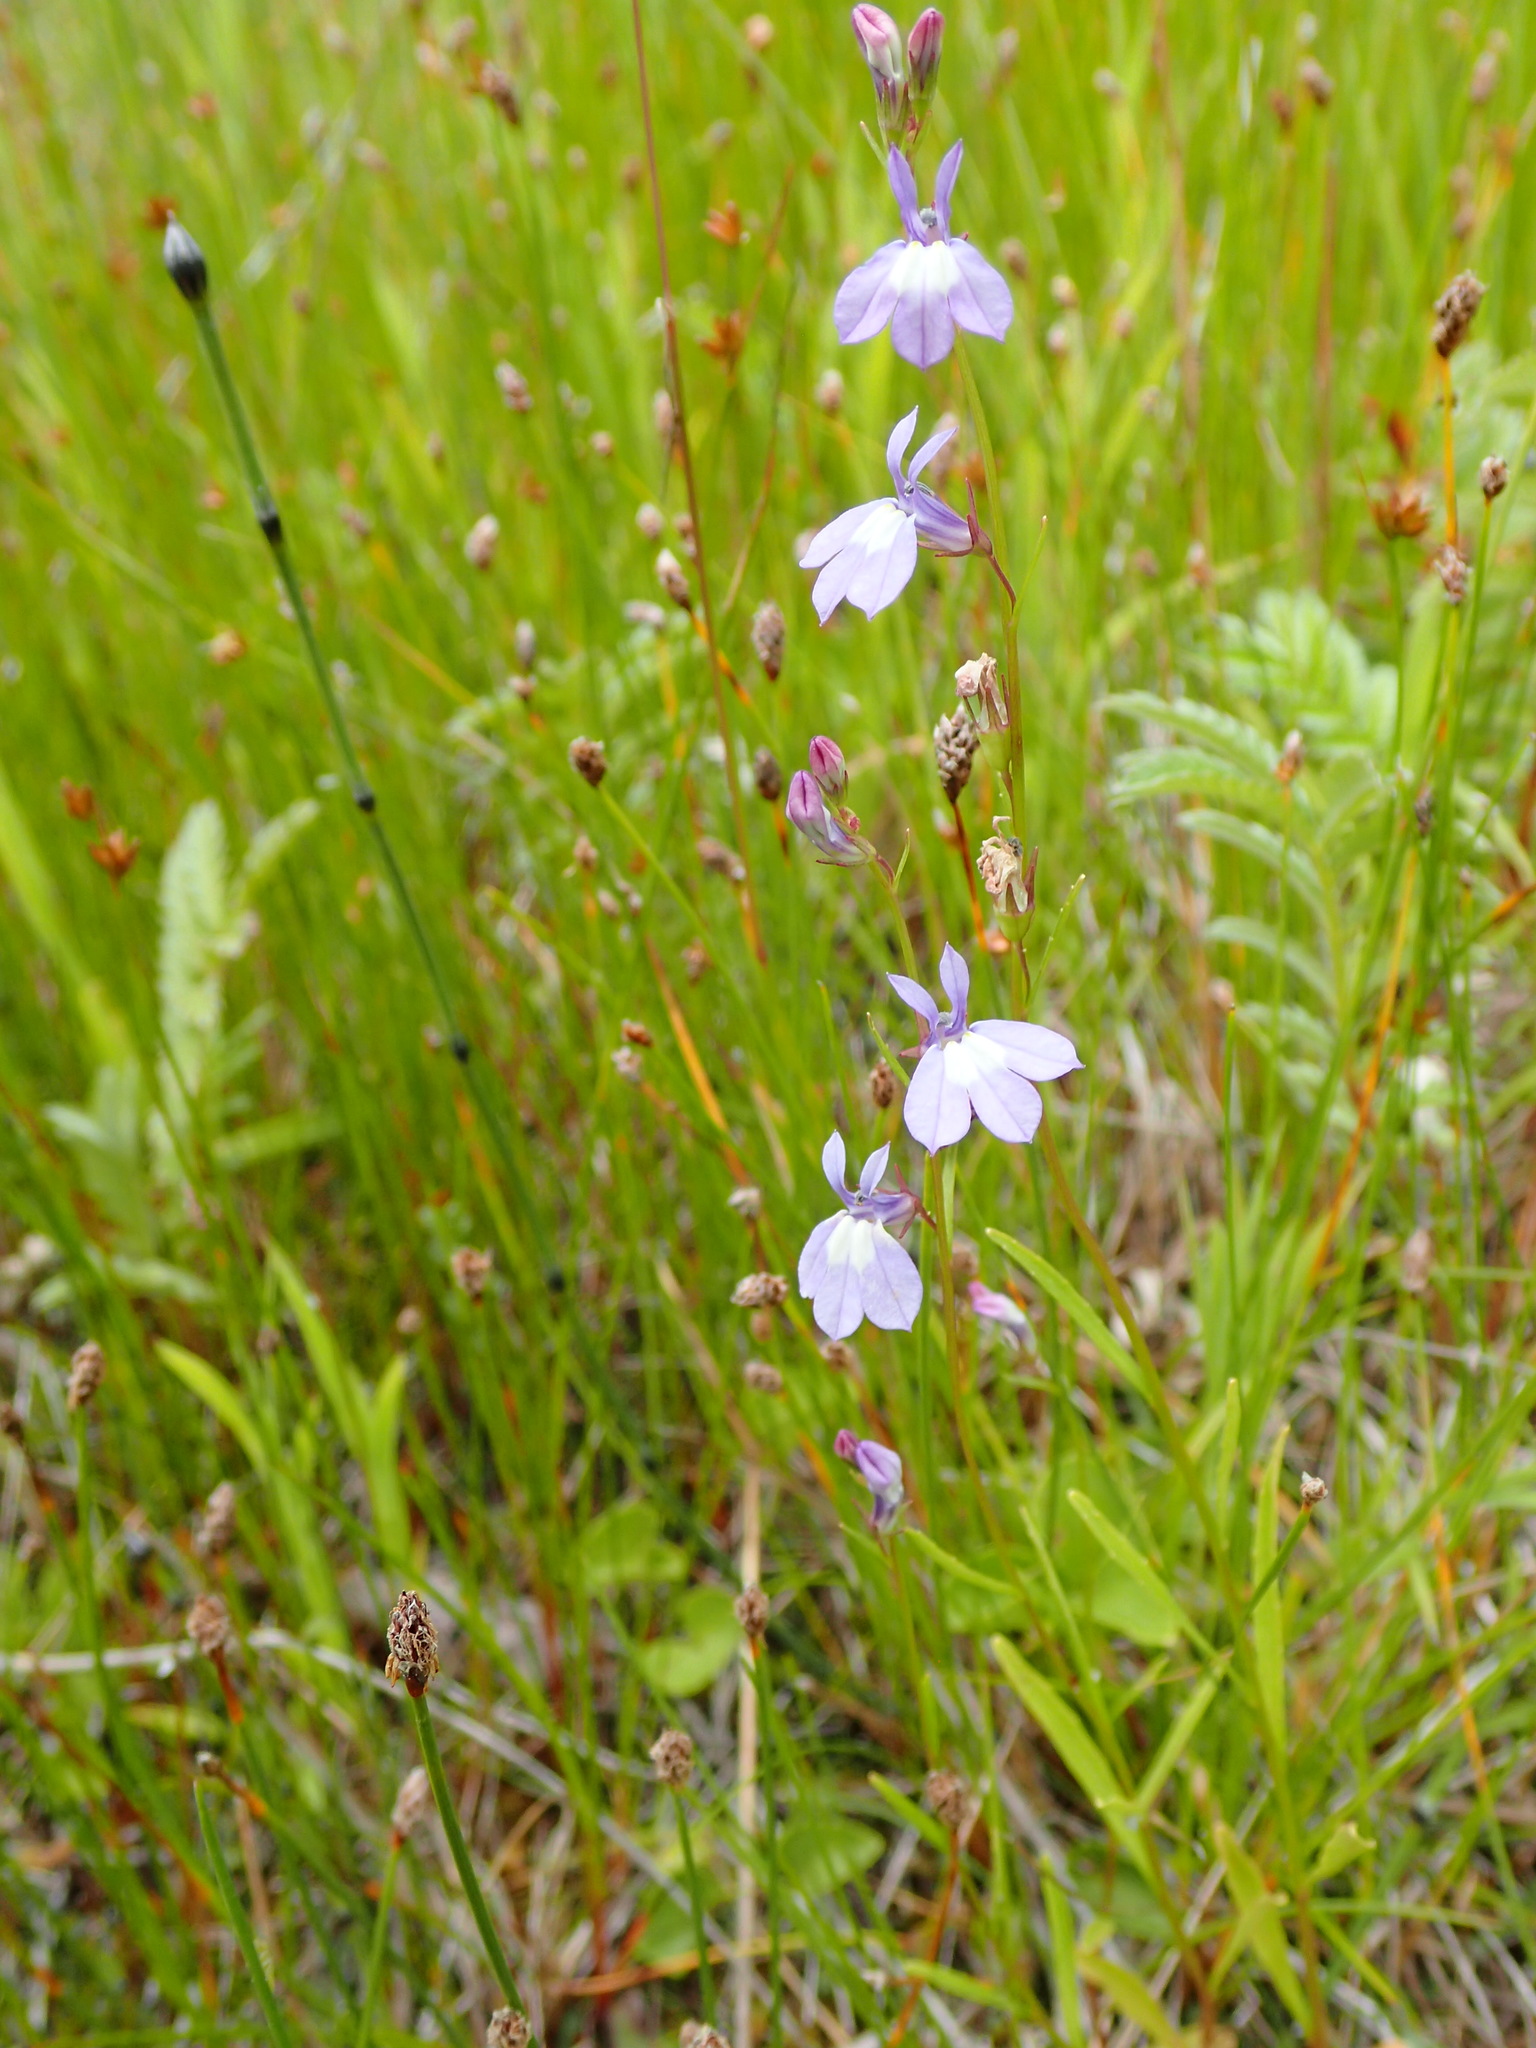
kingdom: Plantae
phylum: Tracheophyta
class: Magnoliopsida
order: Asterales
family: Campanulaceae
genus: Lobelia
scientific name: Lobelia kalmii
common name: Kalm's lobelia
